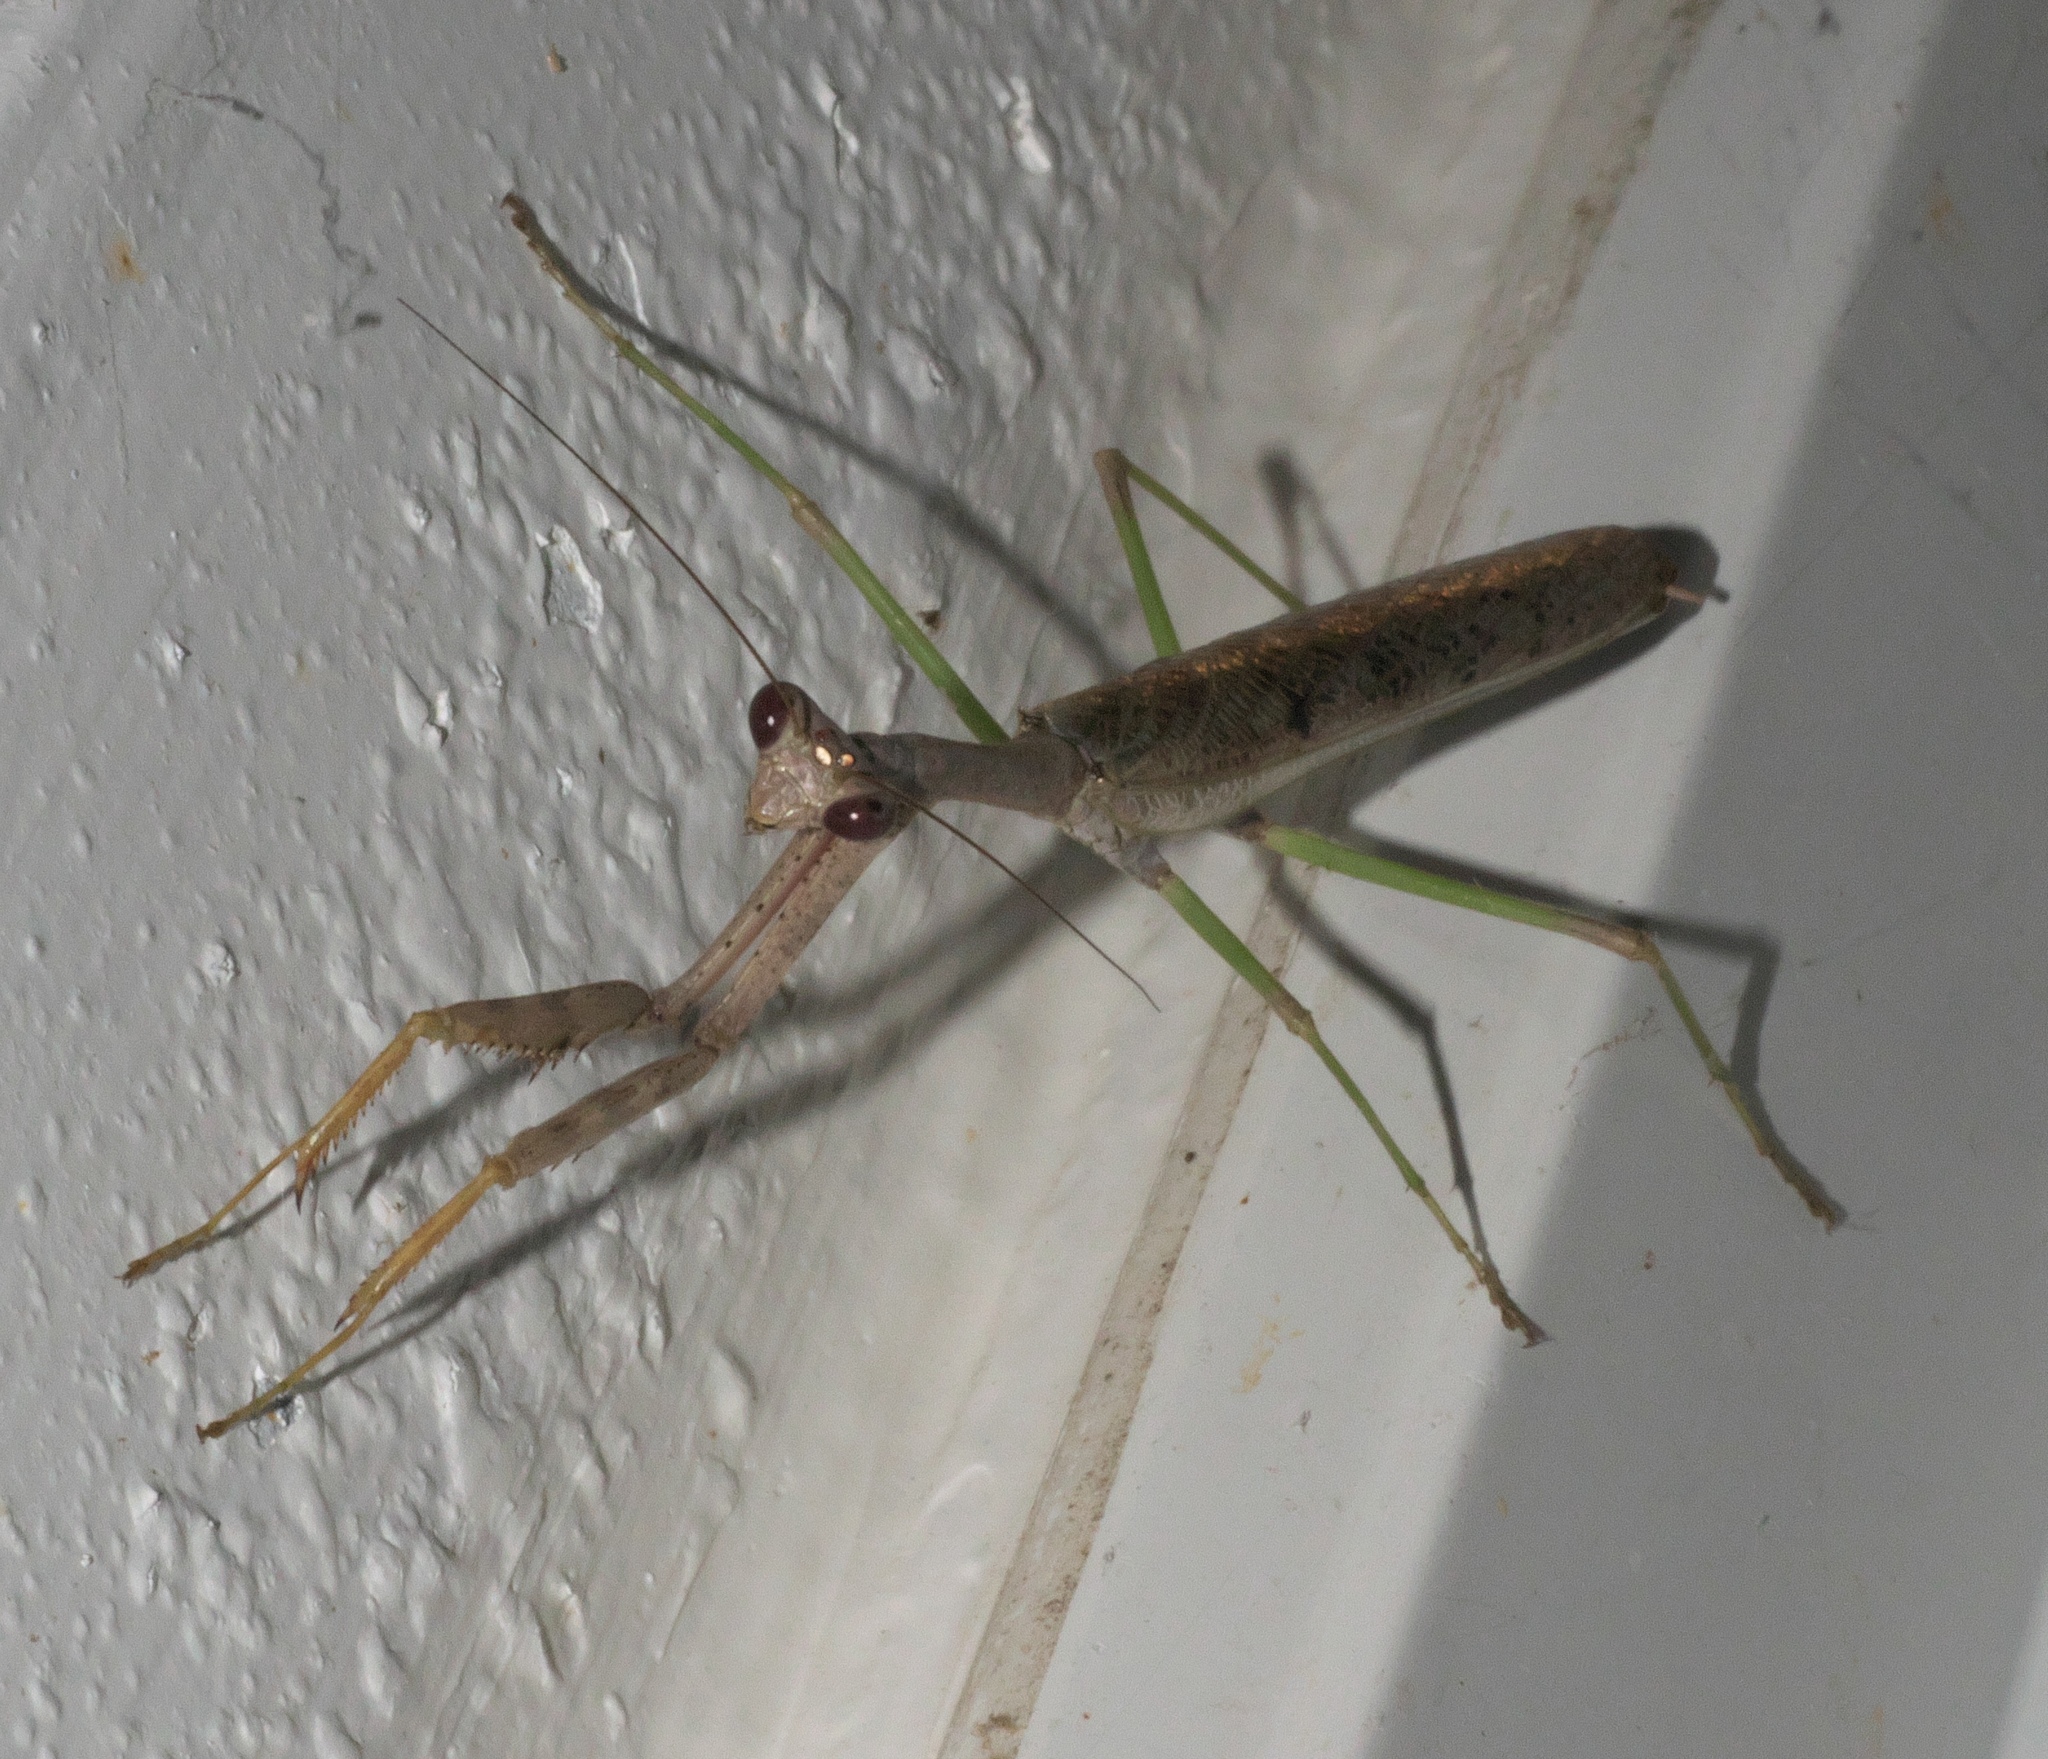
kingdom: Animalia
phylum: Arthropoda
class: Insecta
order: Mantodea
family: Mantidae
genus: Stagmomantis
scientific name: Stagmomantis carolina
